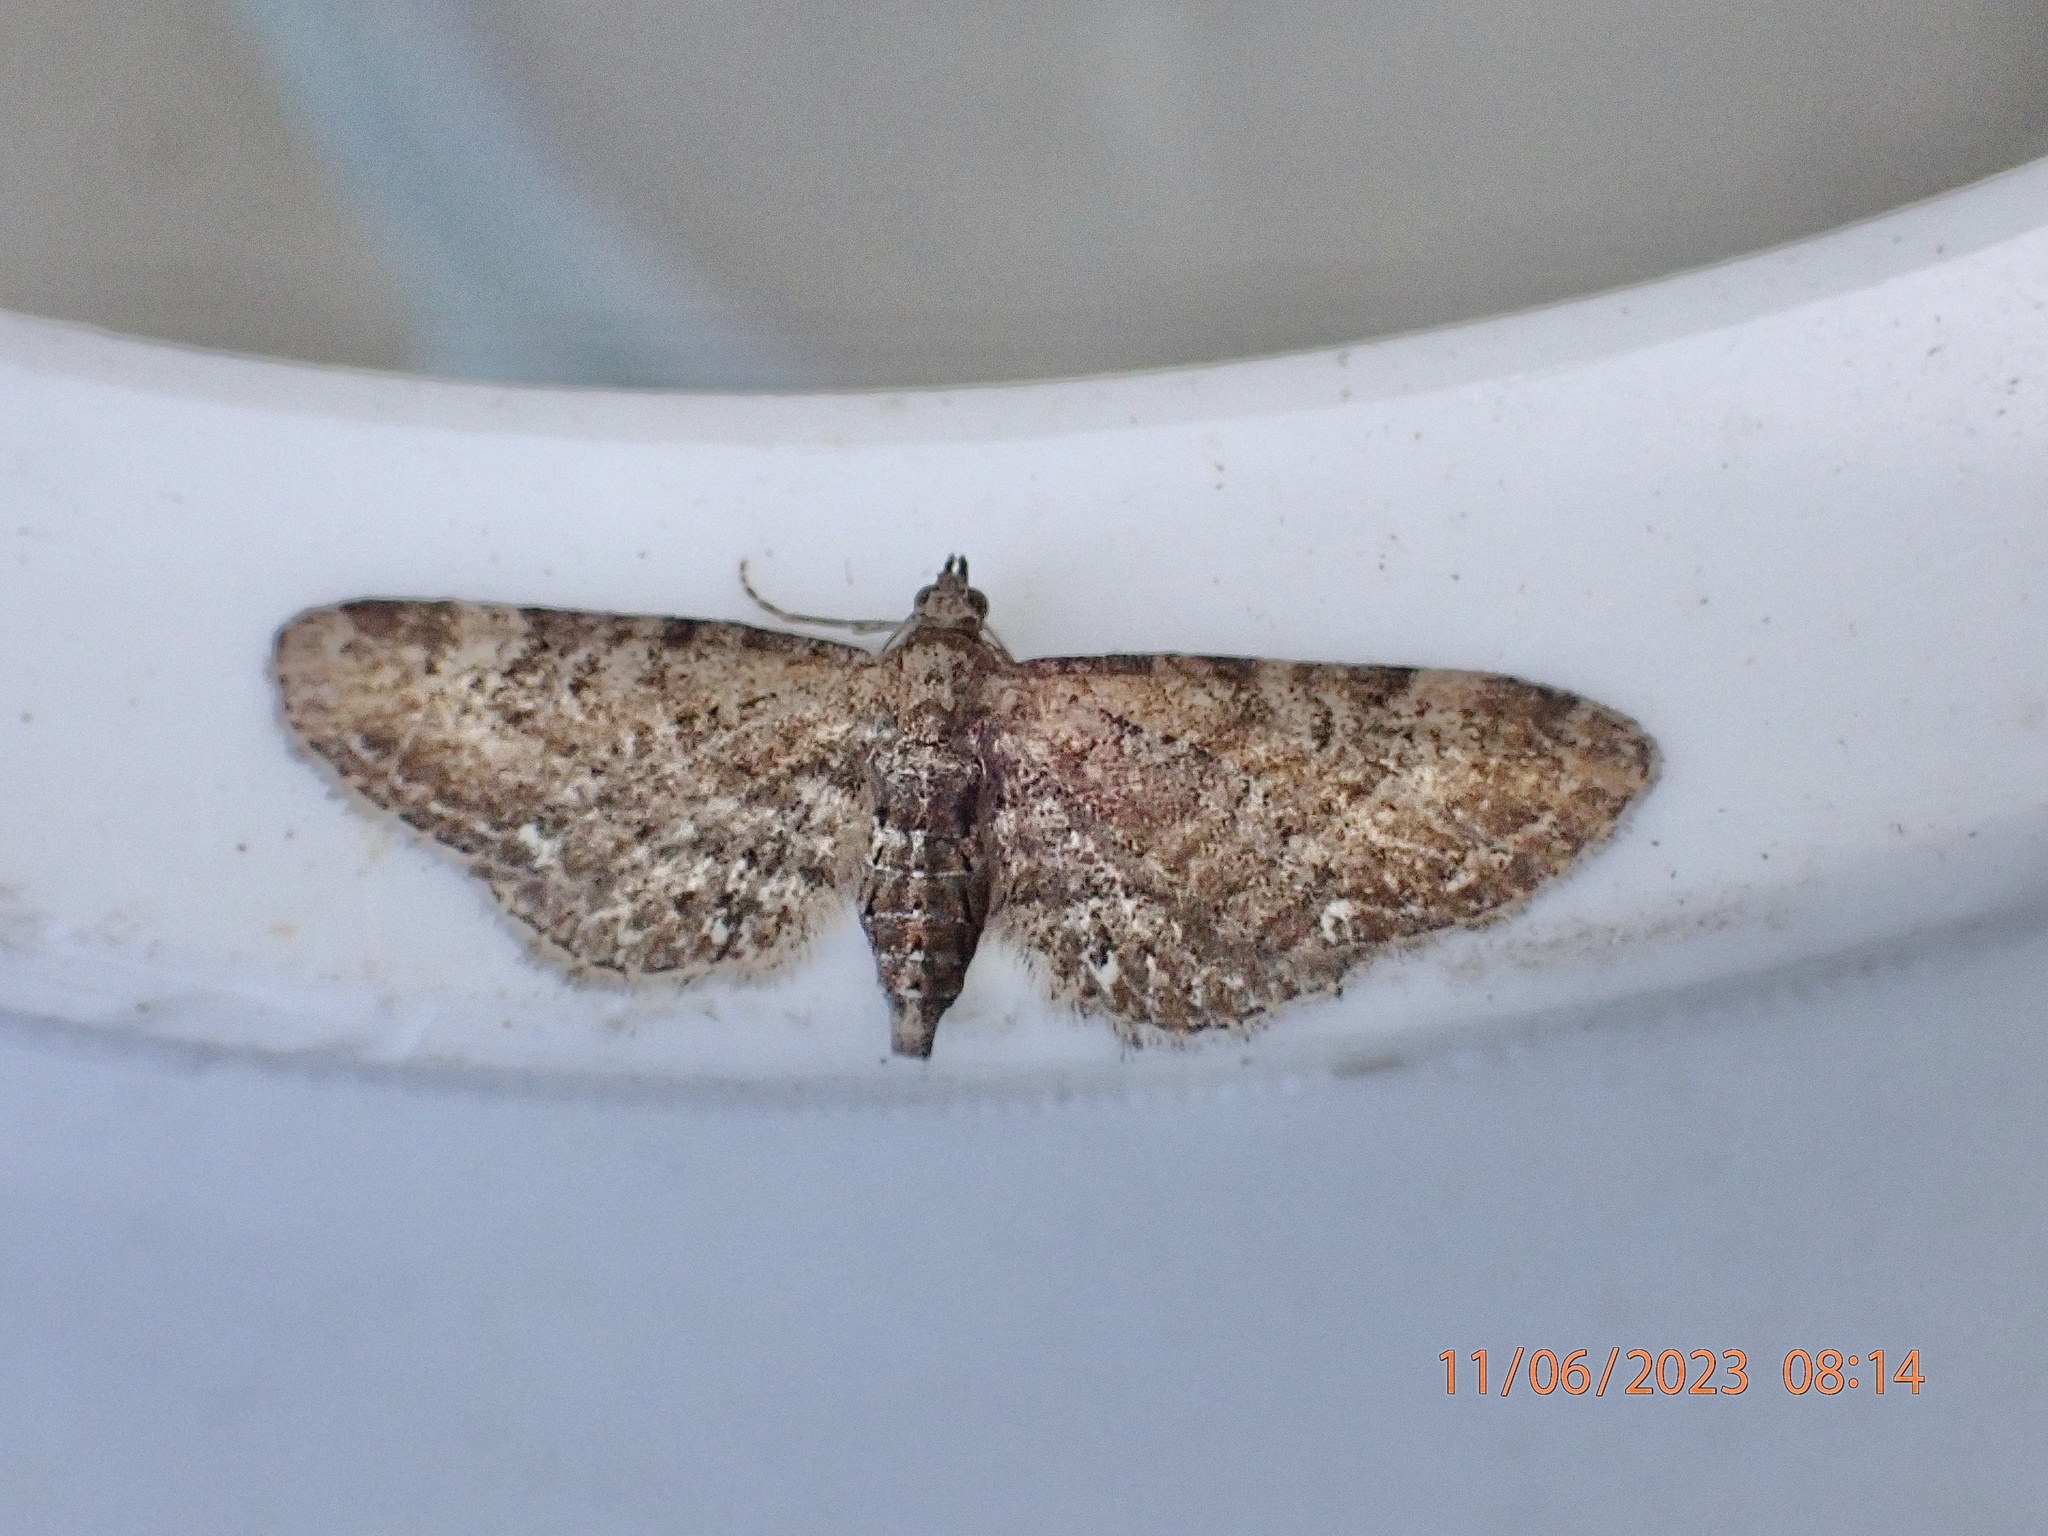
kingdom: Animalia
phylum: Arthropoda
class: Insecta
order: Lepidoptera
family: Geometridae
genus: Eupithecia
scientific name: Eupithecia vulgata
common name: Common pug
